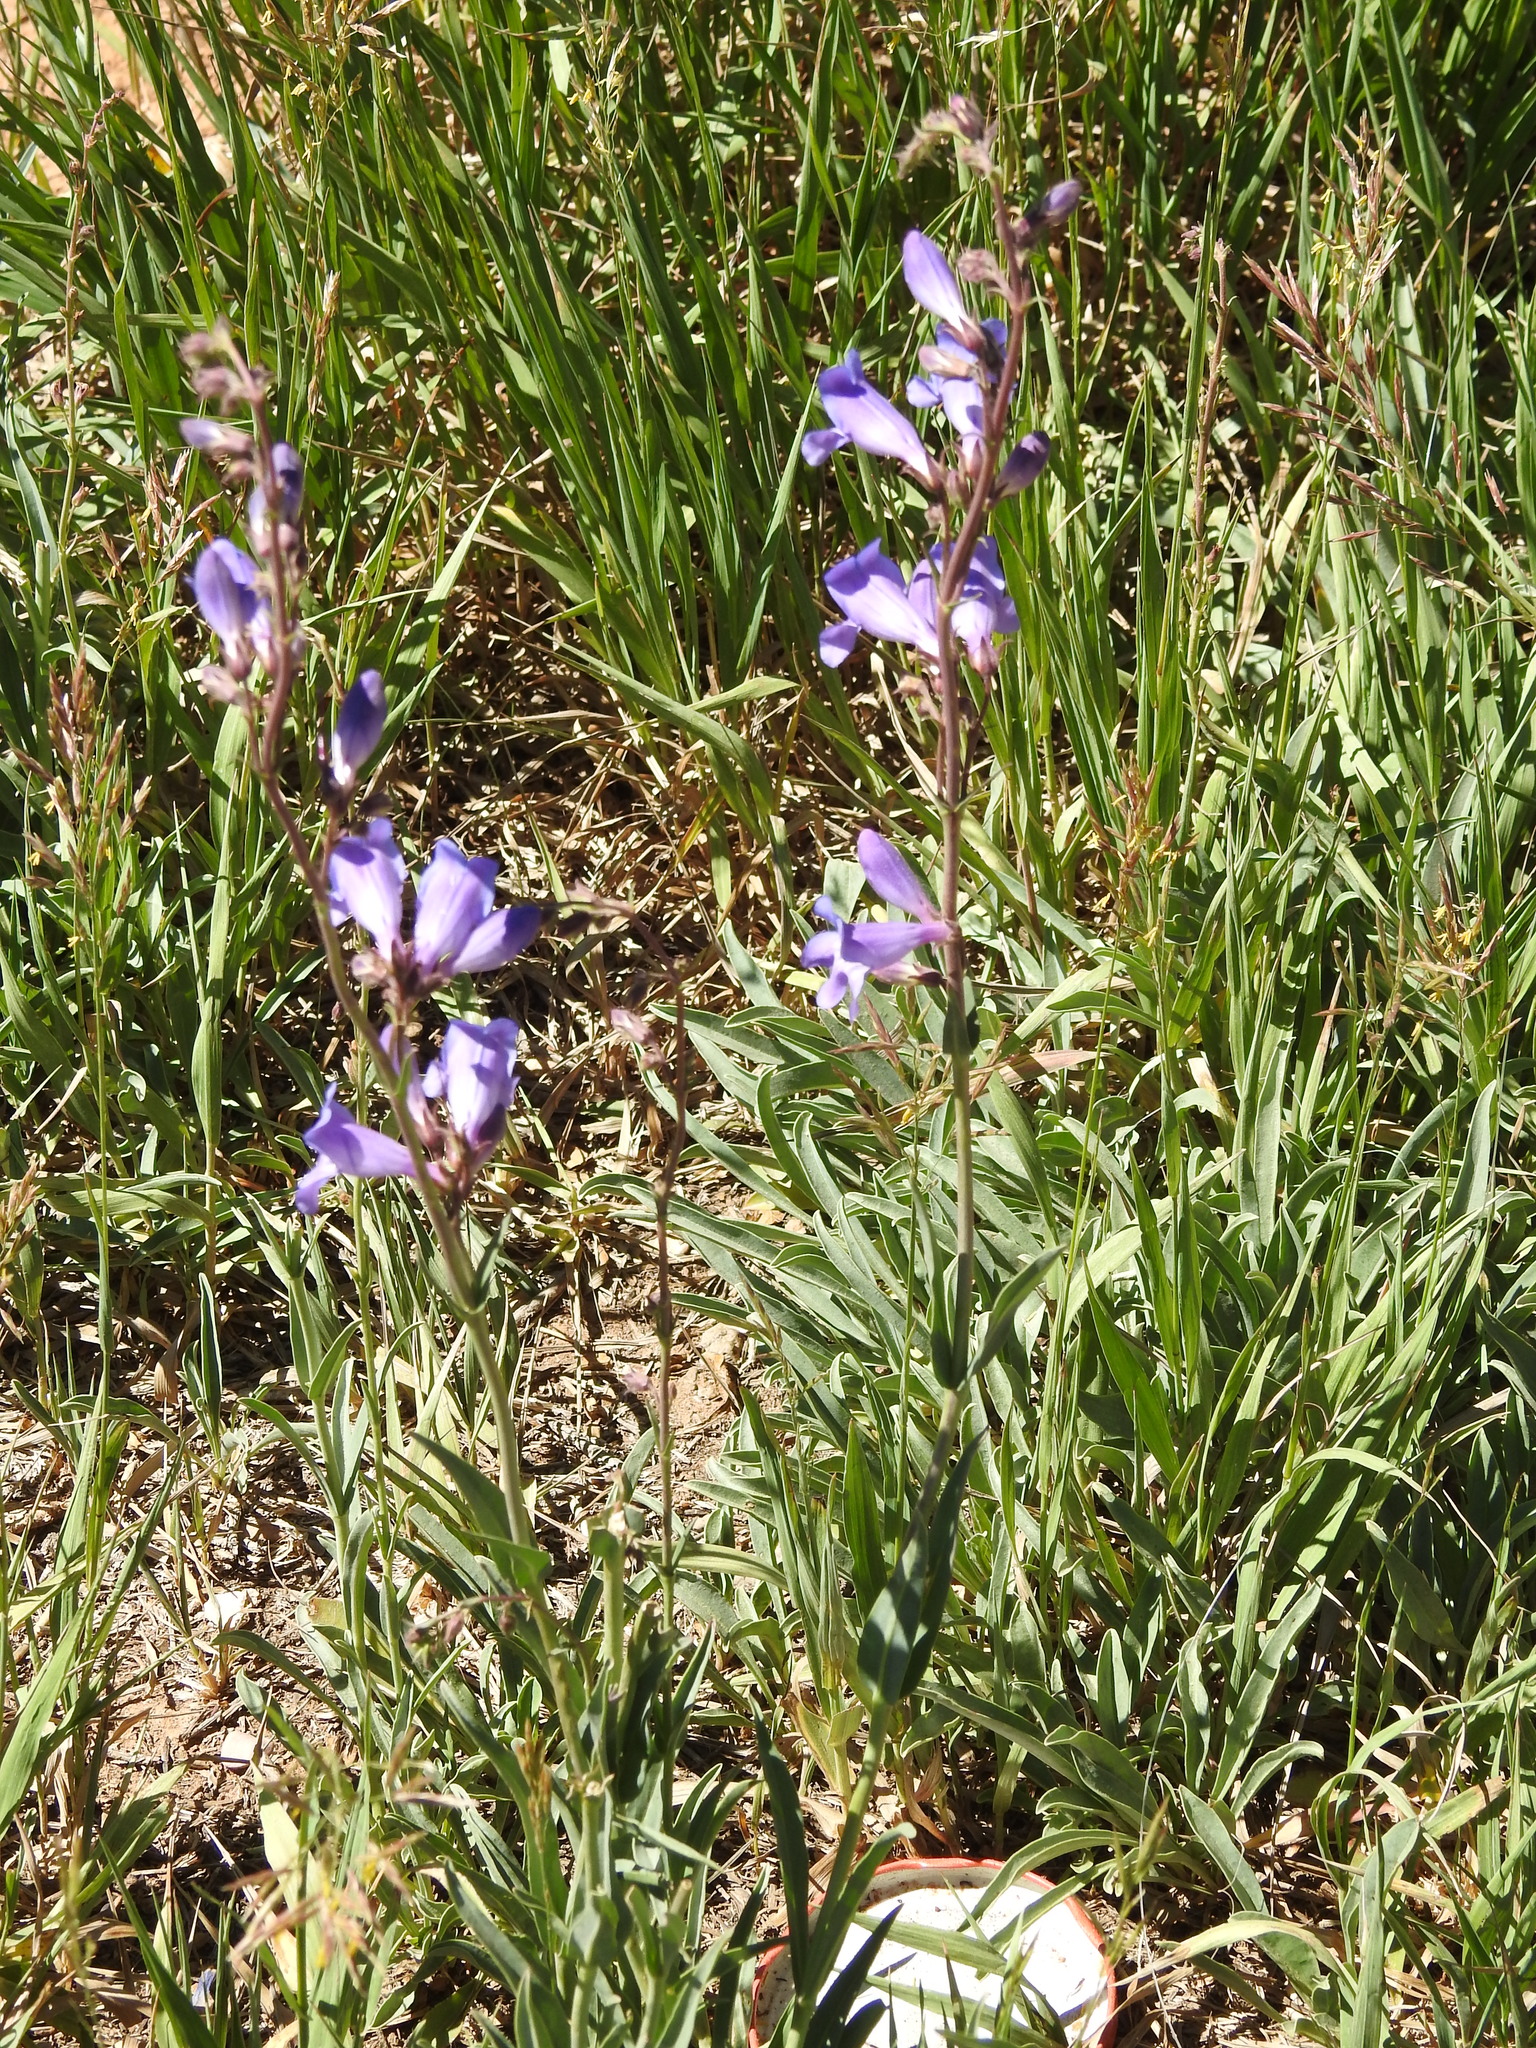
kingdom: Plantae
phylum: Tracheophyta
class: Magnoliopsida
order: Lamiales
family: Plantaginaceae
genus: Penstemon
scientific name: Penstemon leiophyllus
